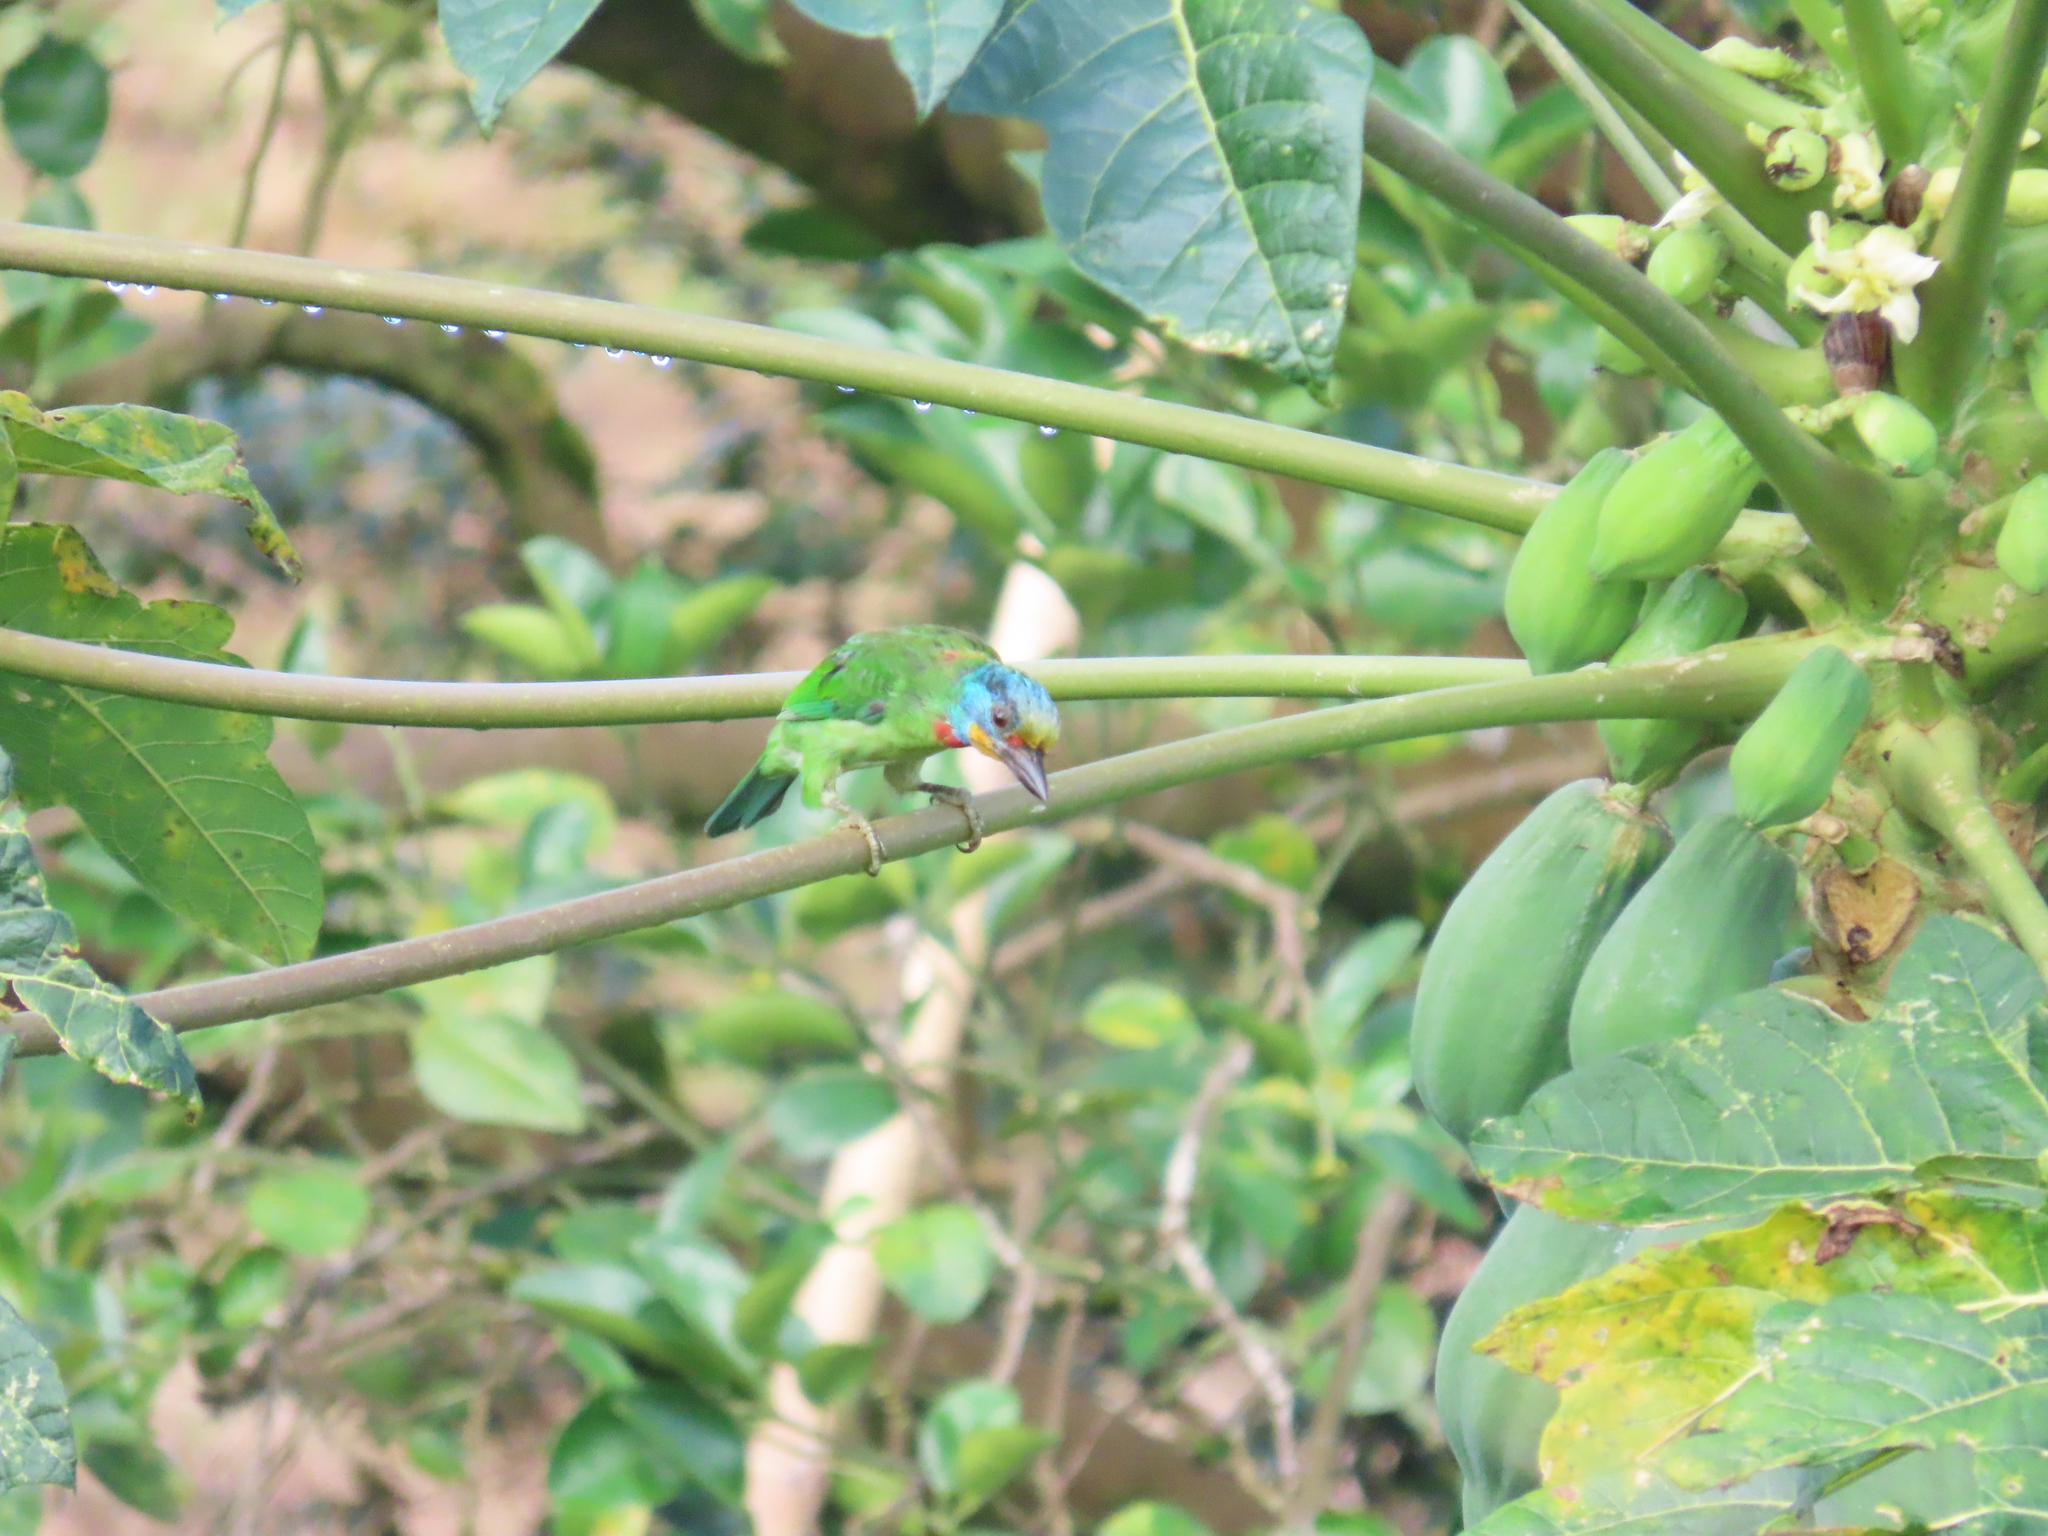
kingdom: Animalia
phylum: Chordata
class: Aves
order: Piciformes
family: Megalaimidae
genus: Psilopogon
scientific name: Psilopogon nuchalis
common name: Taiwan barbet
